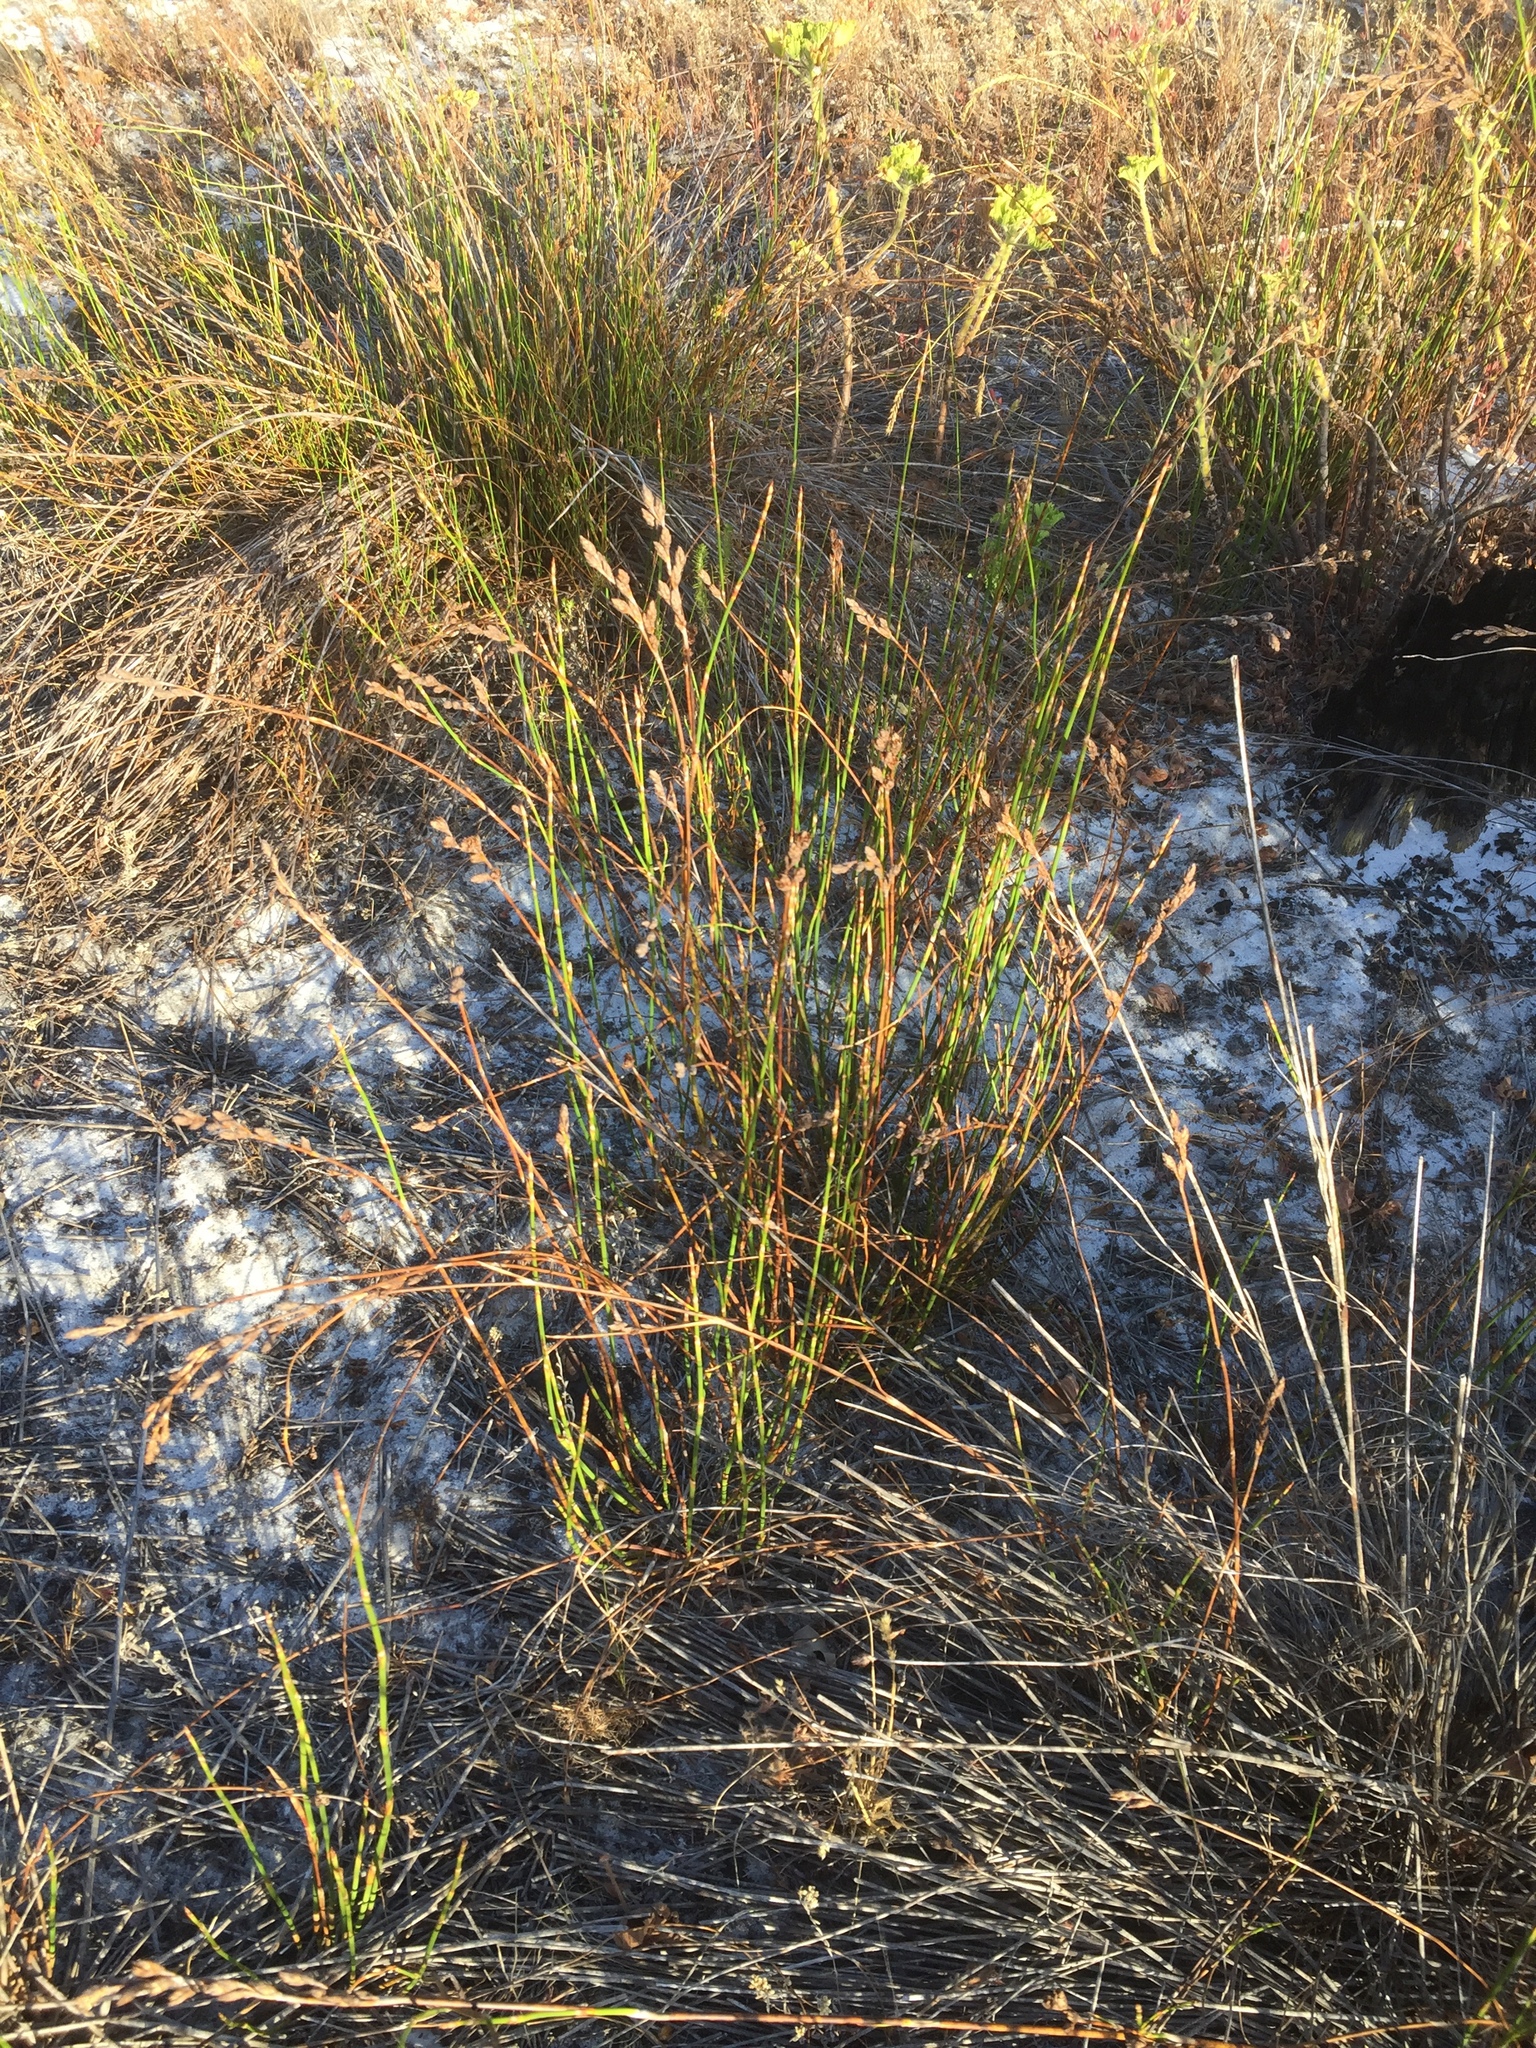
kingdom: Plantae
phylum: Tracheophyta
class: Liliopsida
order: Poales
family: Restionaceae
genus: Restio
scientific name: Restio bifurcus
